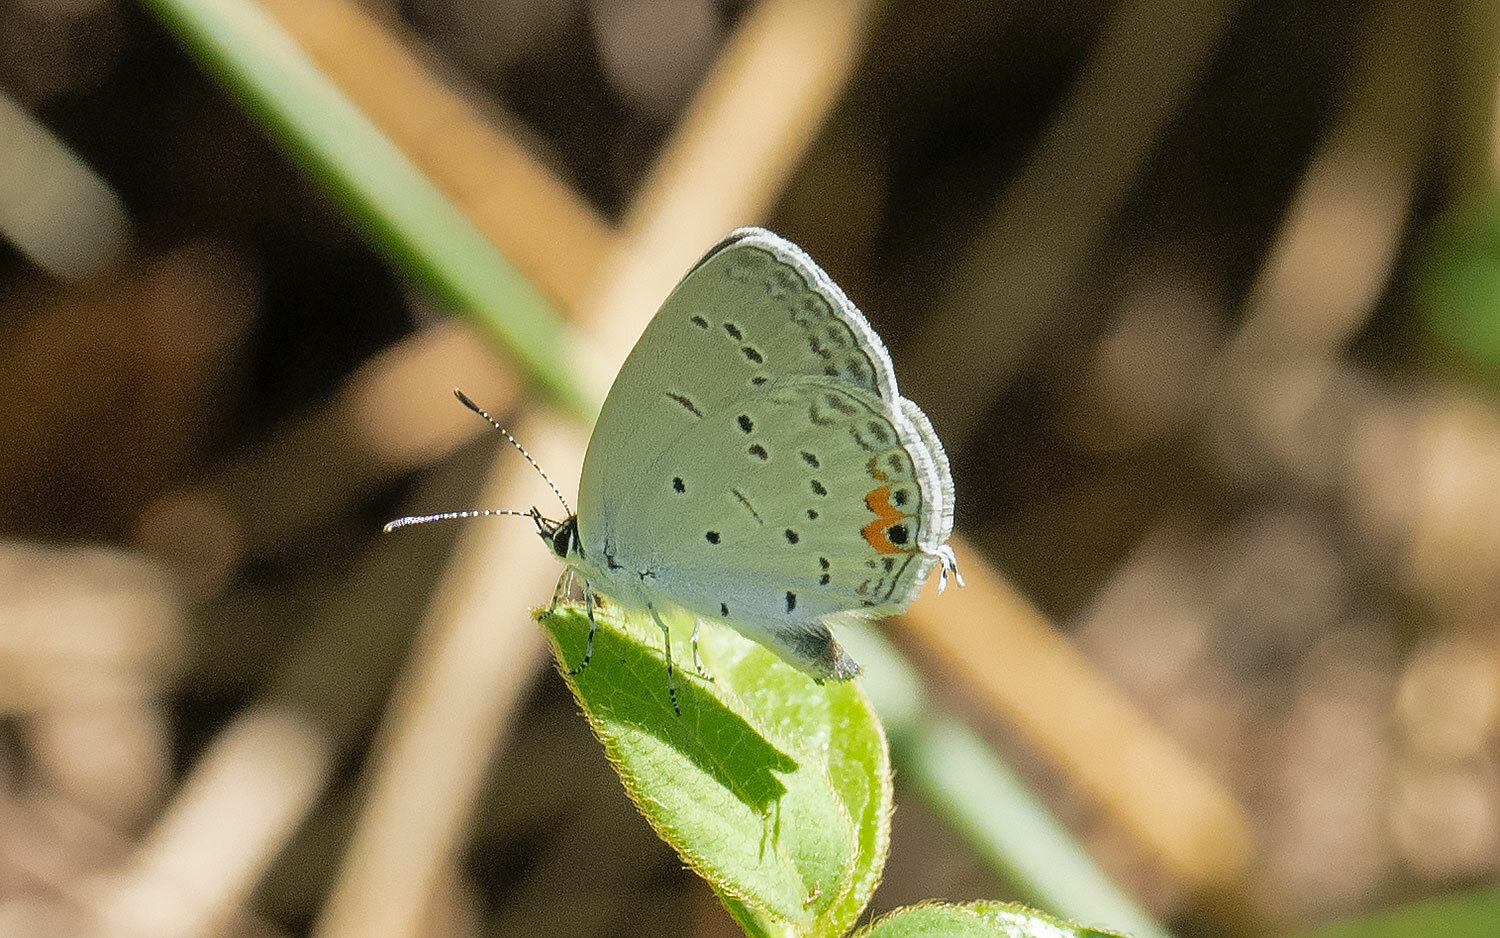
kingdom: Animalia
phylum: Arthropoda
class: Insecta
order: Lepidoptera
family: Lycaenidae
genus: Elkalyce
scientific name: Elkalyce comyntas
